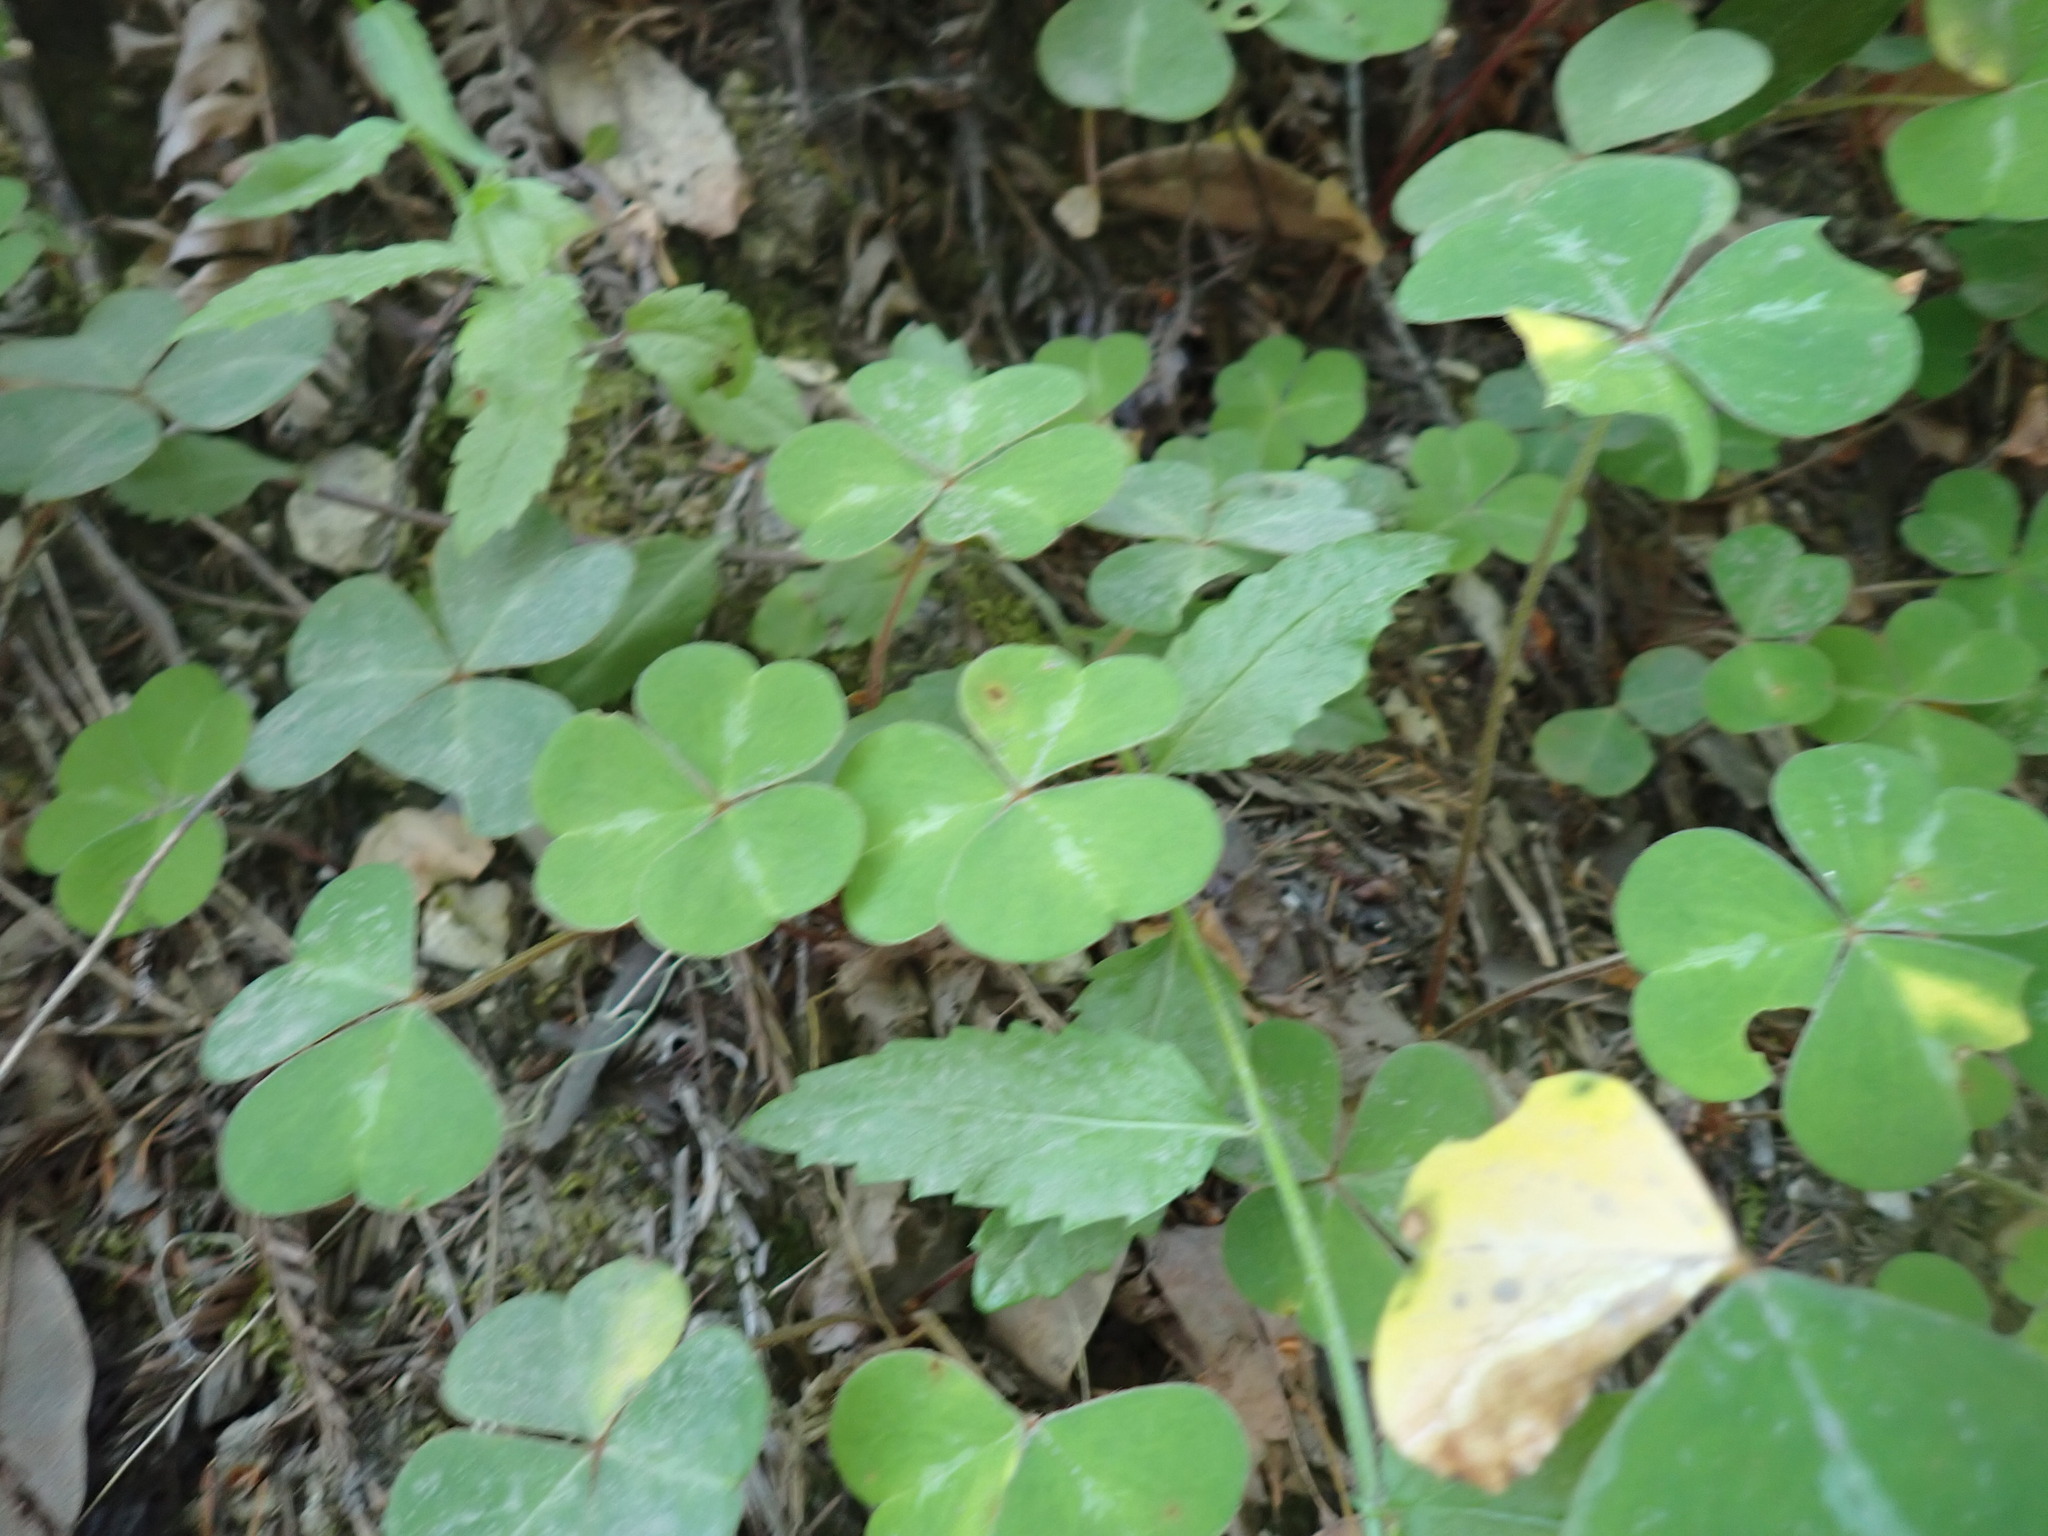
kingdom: Plantae
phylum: Tracheophyta
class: Magnoliopsida
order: Oxalidales
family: Oxalidaceae
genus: Oxalis
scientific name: Oxalis oregana
